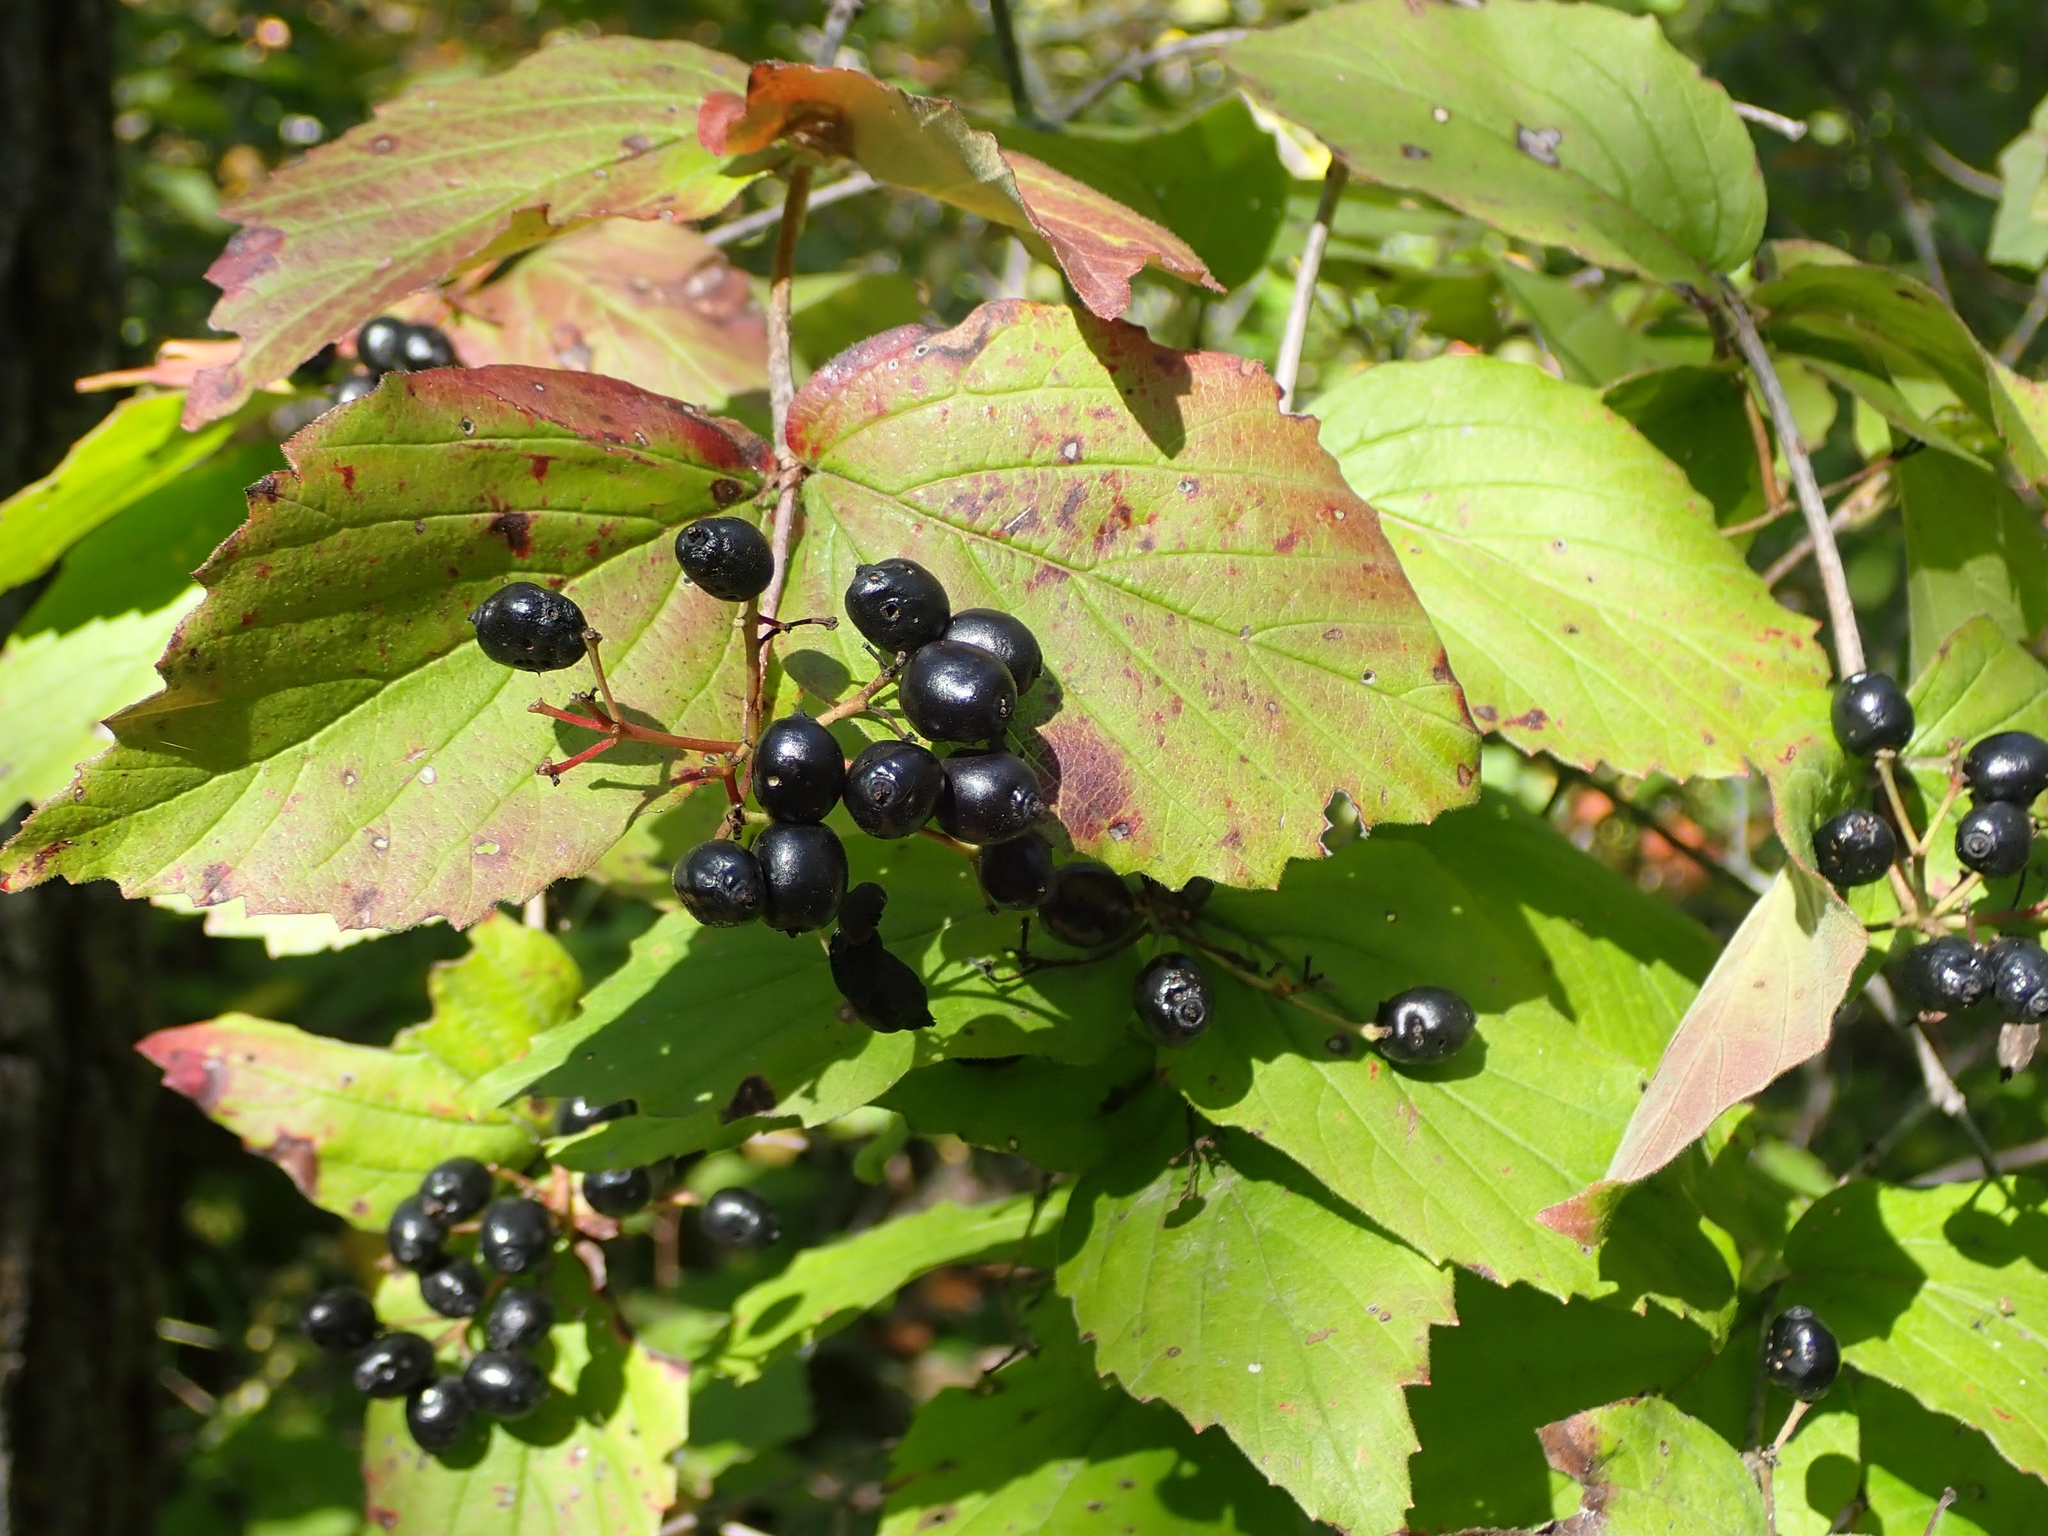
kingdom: Plantae
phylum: Tracheophyta
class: Magnoliopsida
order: Dipsacales
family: Viburnaceae
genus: Viburnum
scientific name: Viburnum rafinesqueanum
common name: Downy arrow-wood
